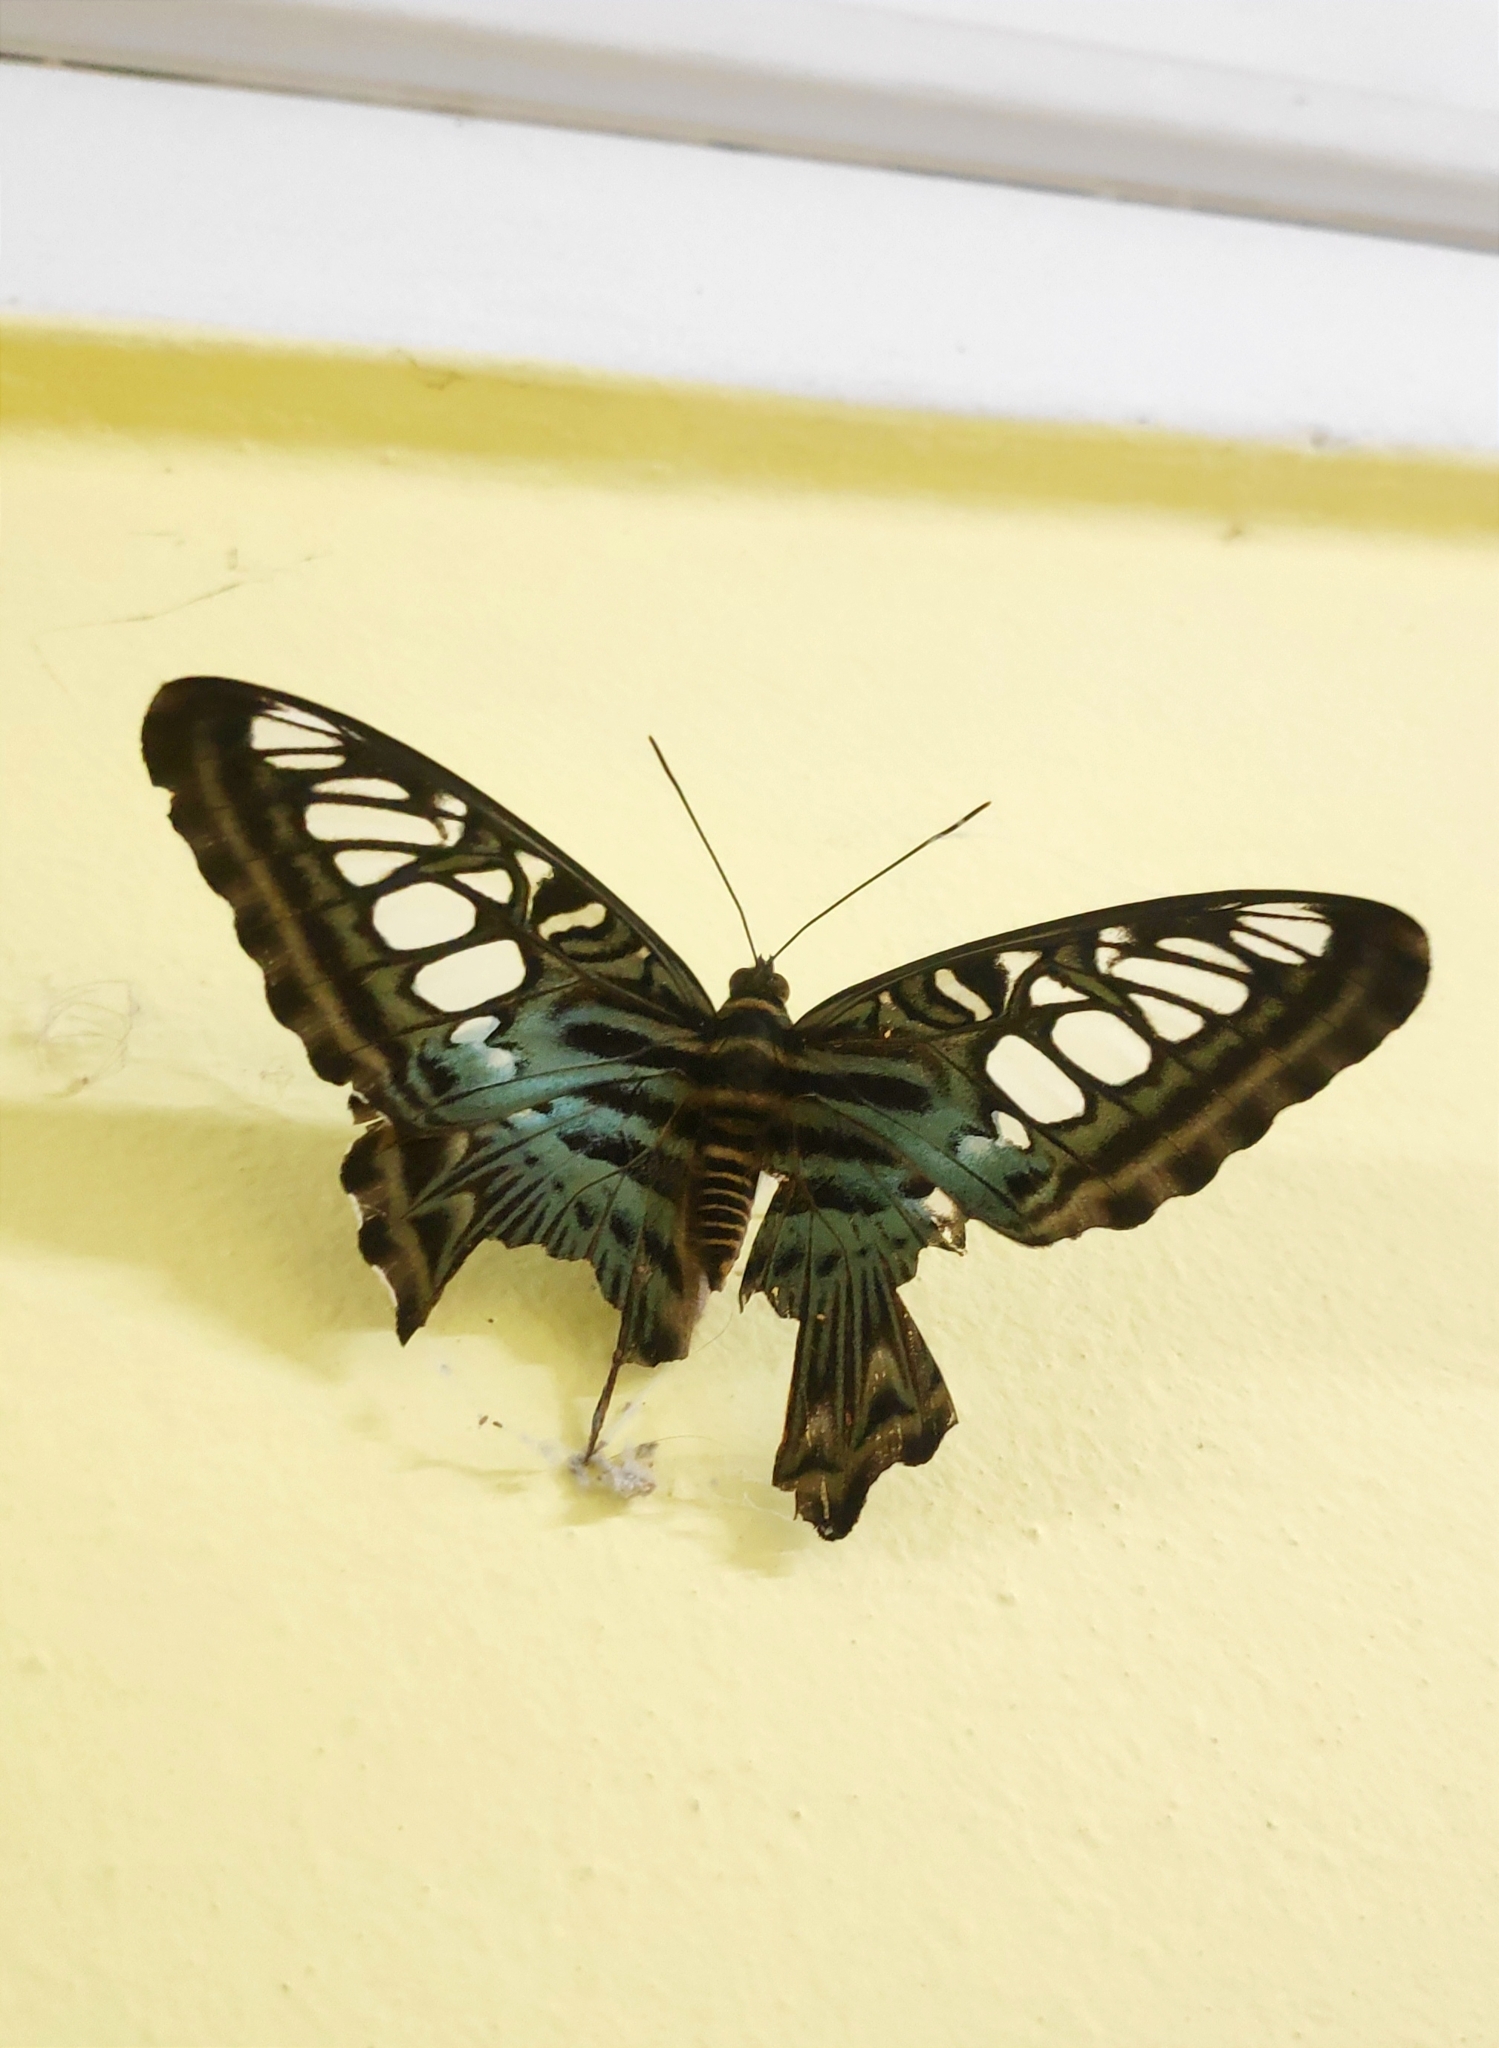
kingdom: Animalia
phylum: Arthropoda
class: Insecta
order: Lepidoptera
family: Nymphalidae
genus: Kallima
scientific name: Kallima sylvia
